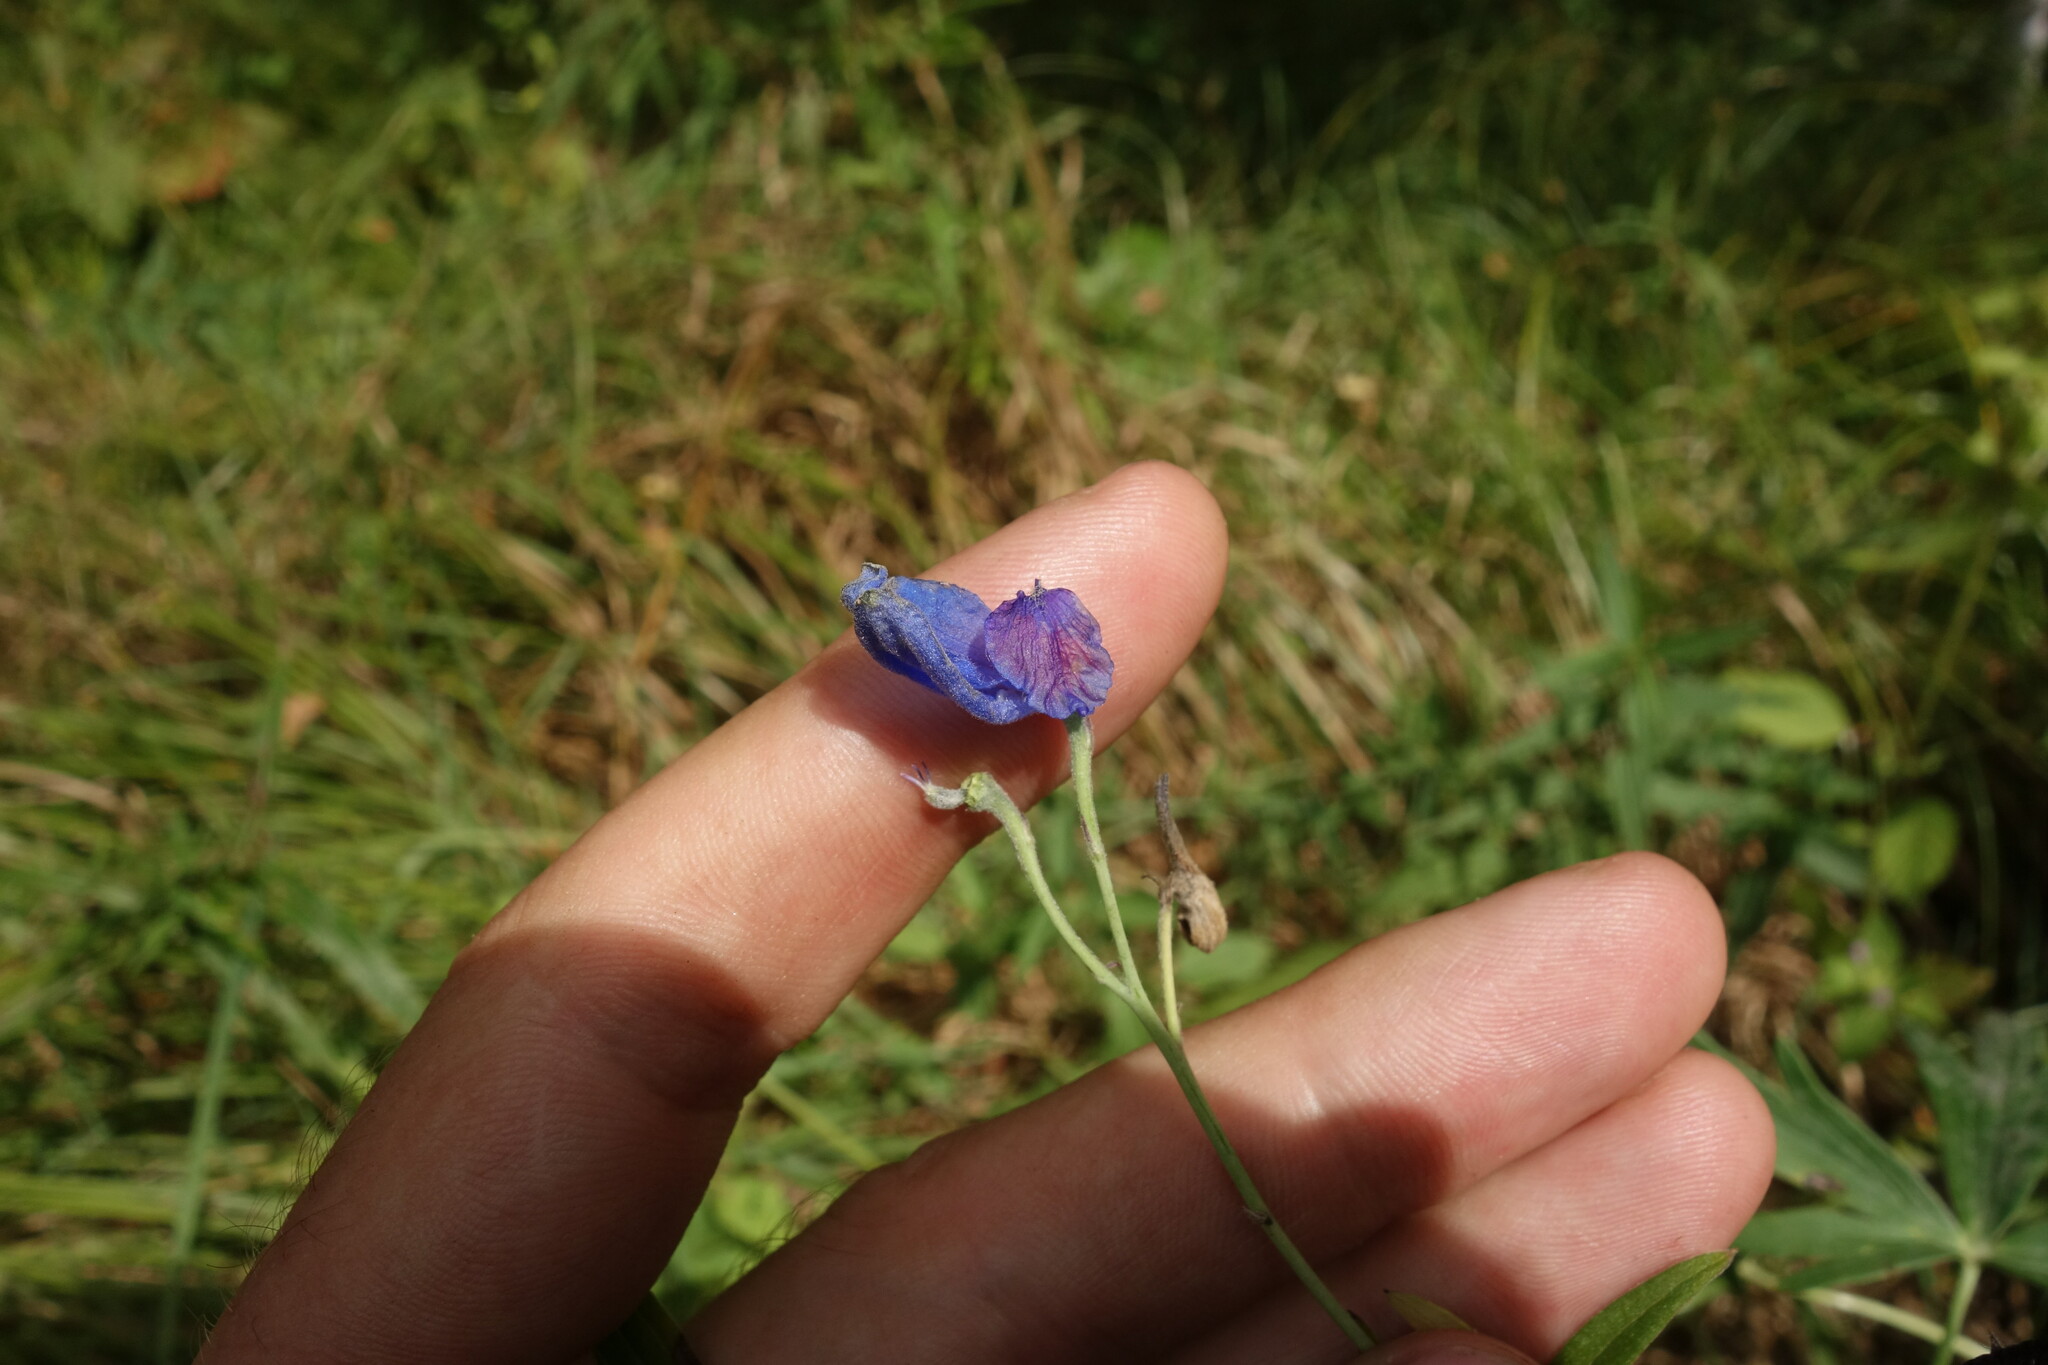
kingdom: Plantae
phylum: Tracheophyta
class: Magnoliopsida
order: Ranunculales
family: Ranunculaceae
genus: Delphinium
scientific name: Delphinium cheilanthum
